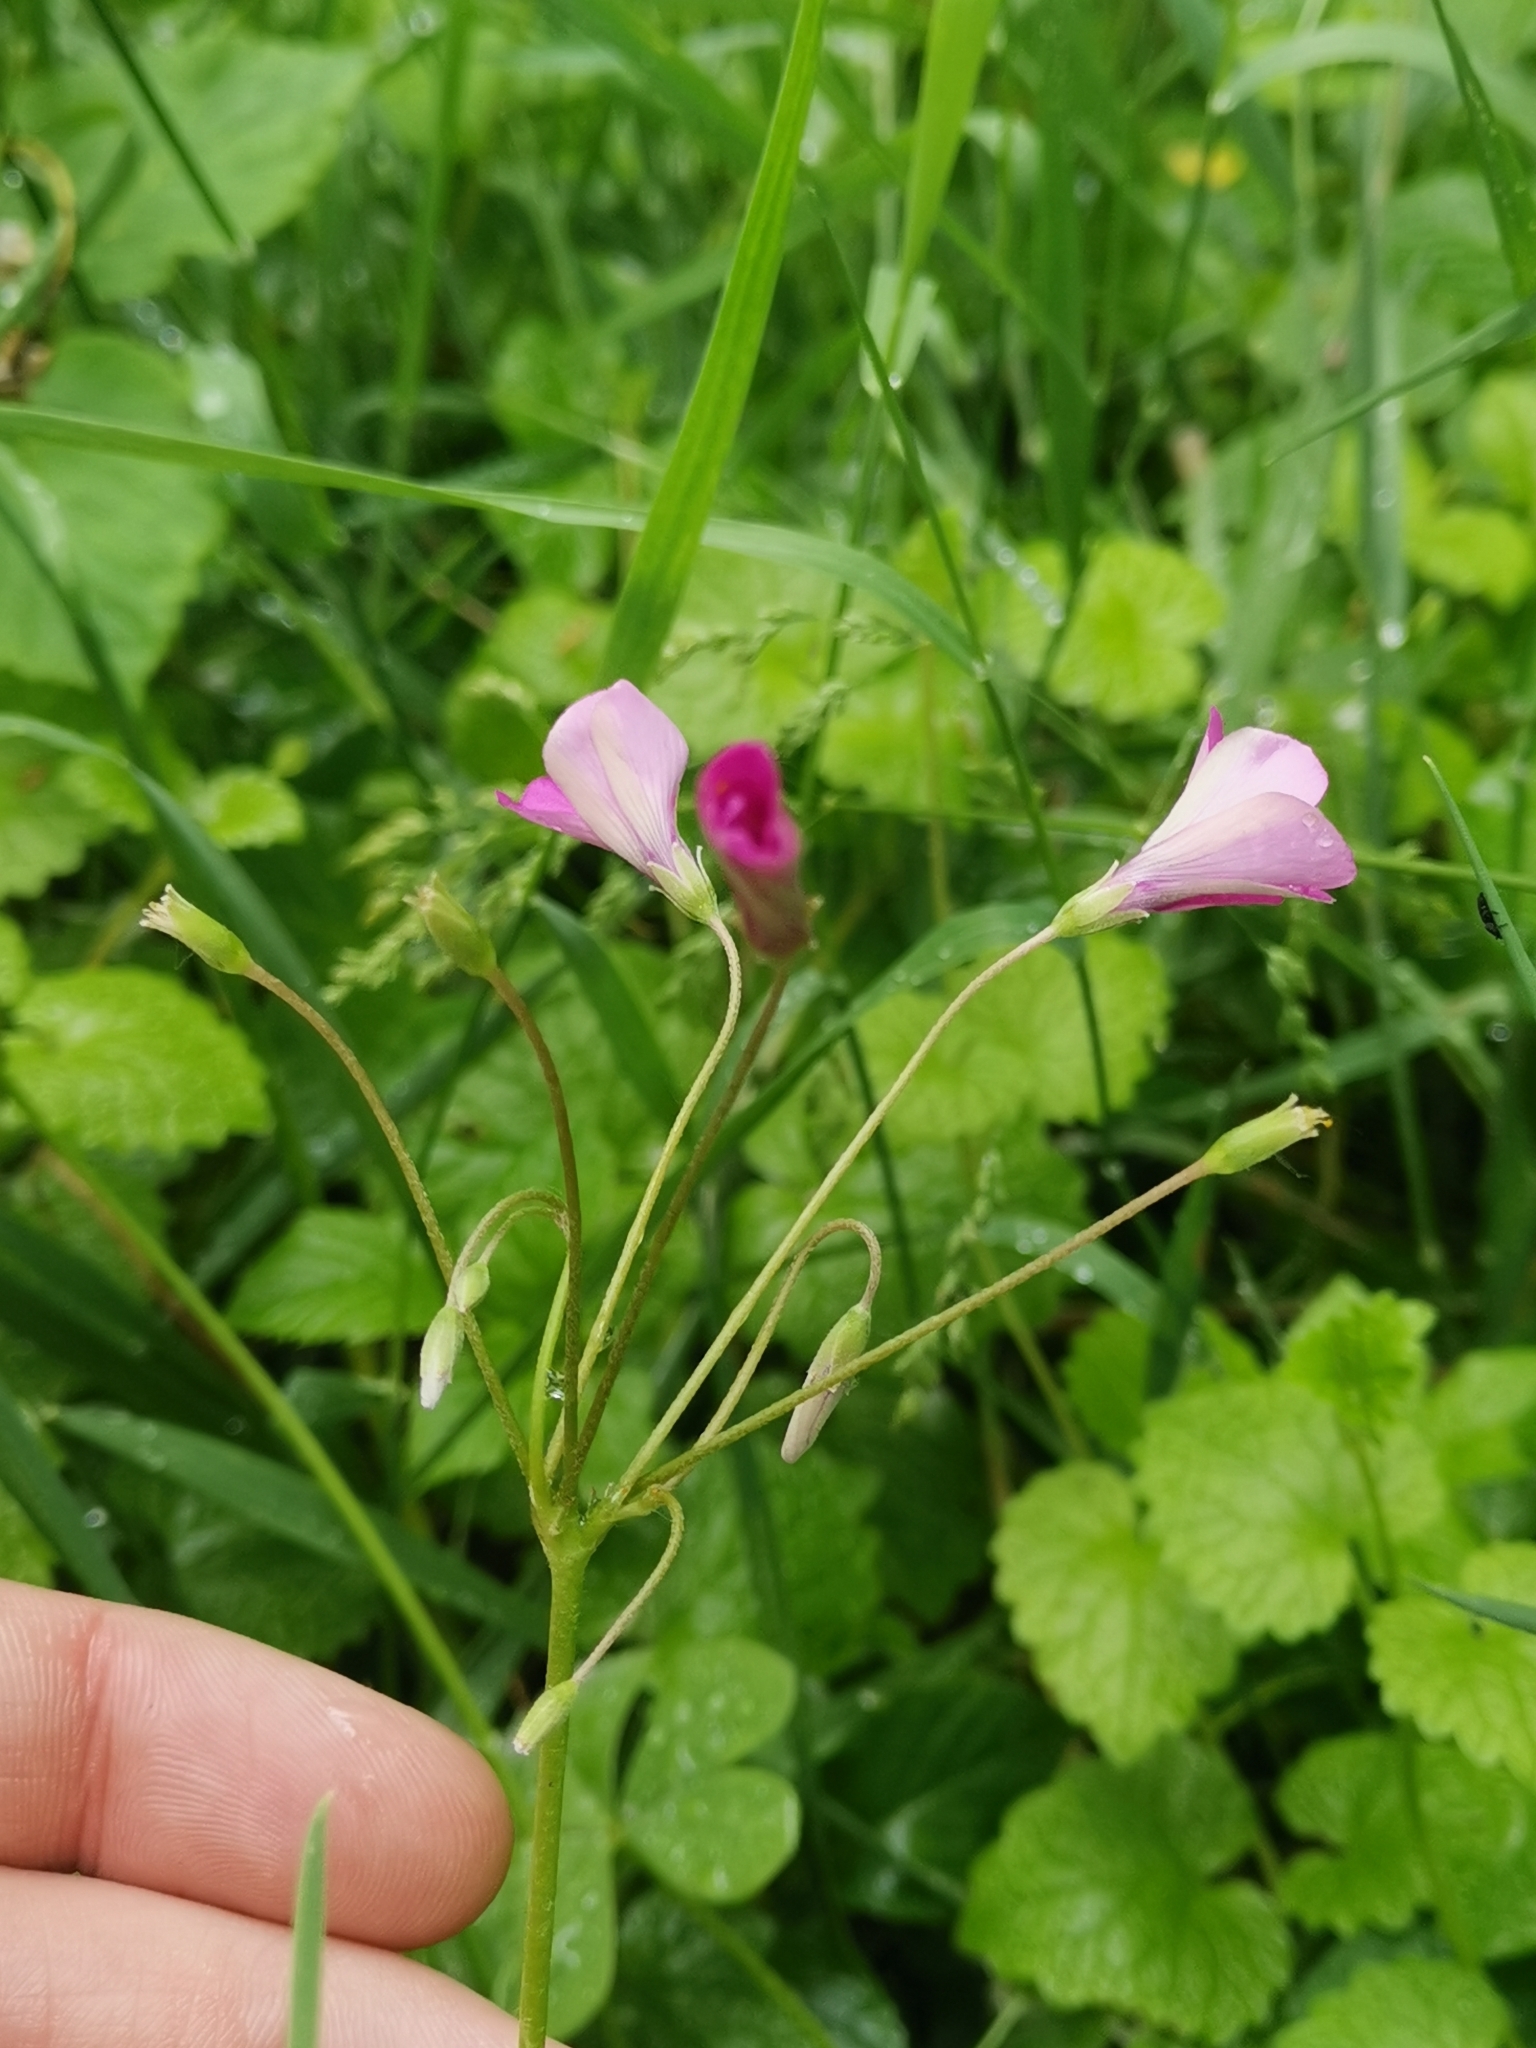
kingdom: Plantae
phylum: Tracheophyta
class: Magnoliopsida
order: Oxalidales
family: Oxalidaceae
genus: Oxalis
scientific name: Oxalis articulata
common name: Pink-sorrel
